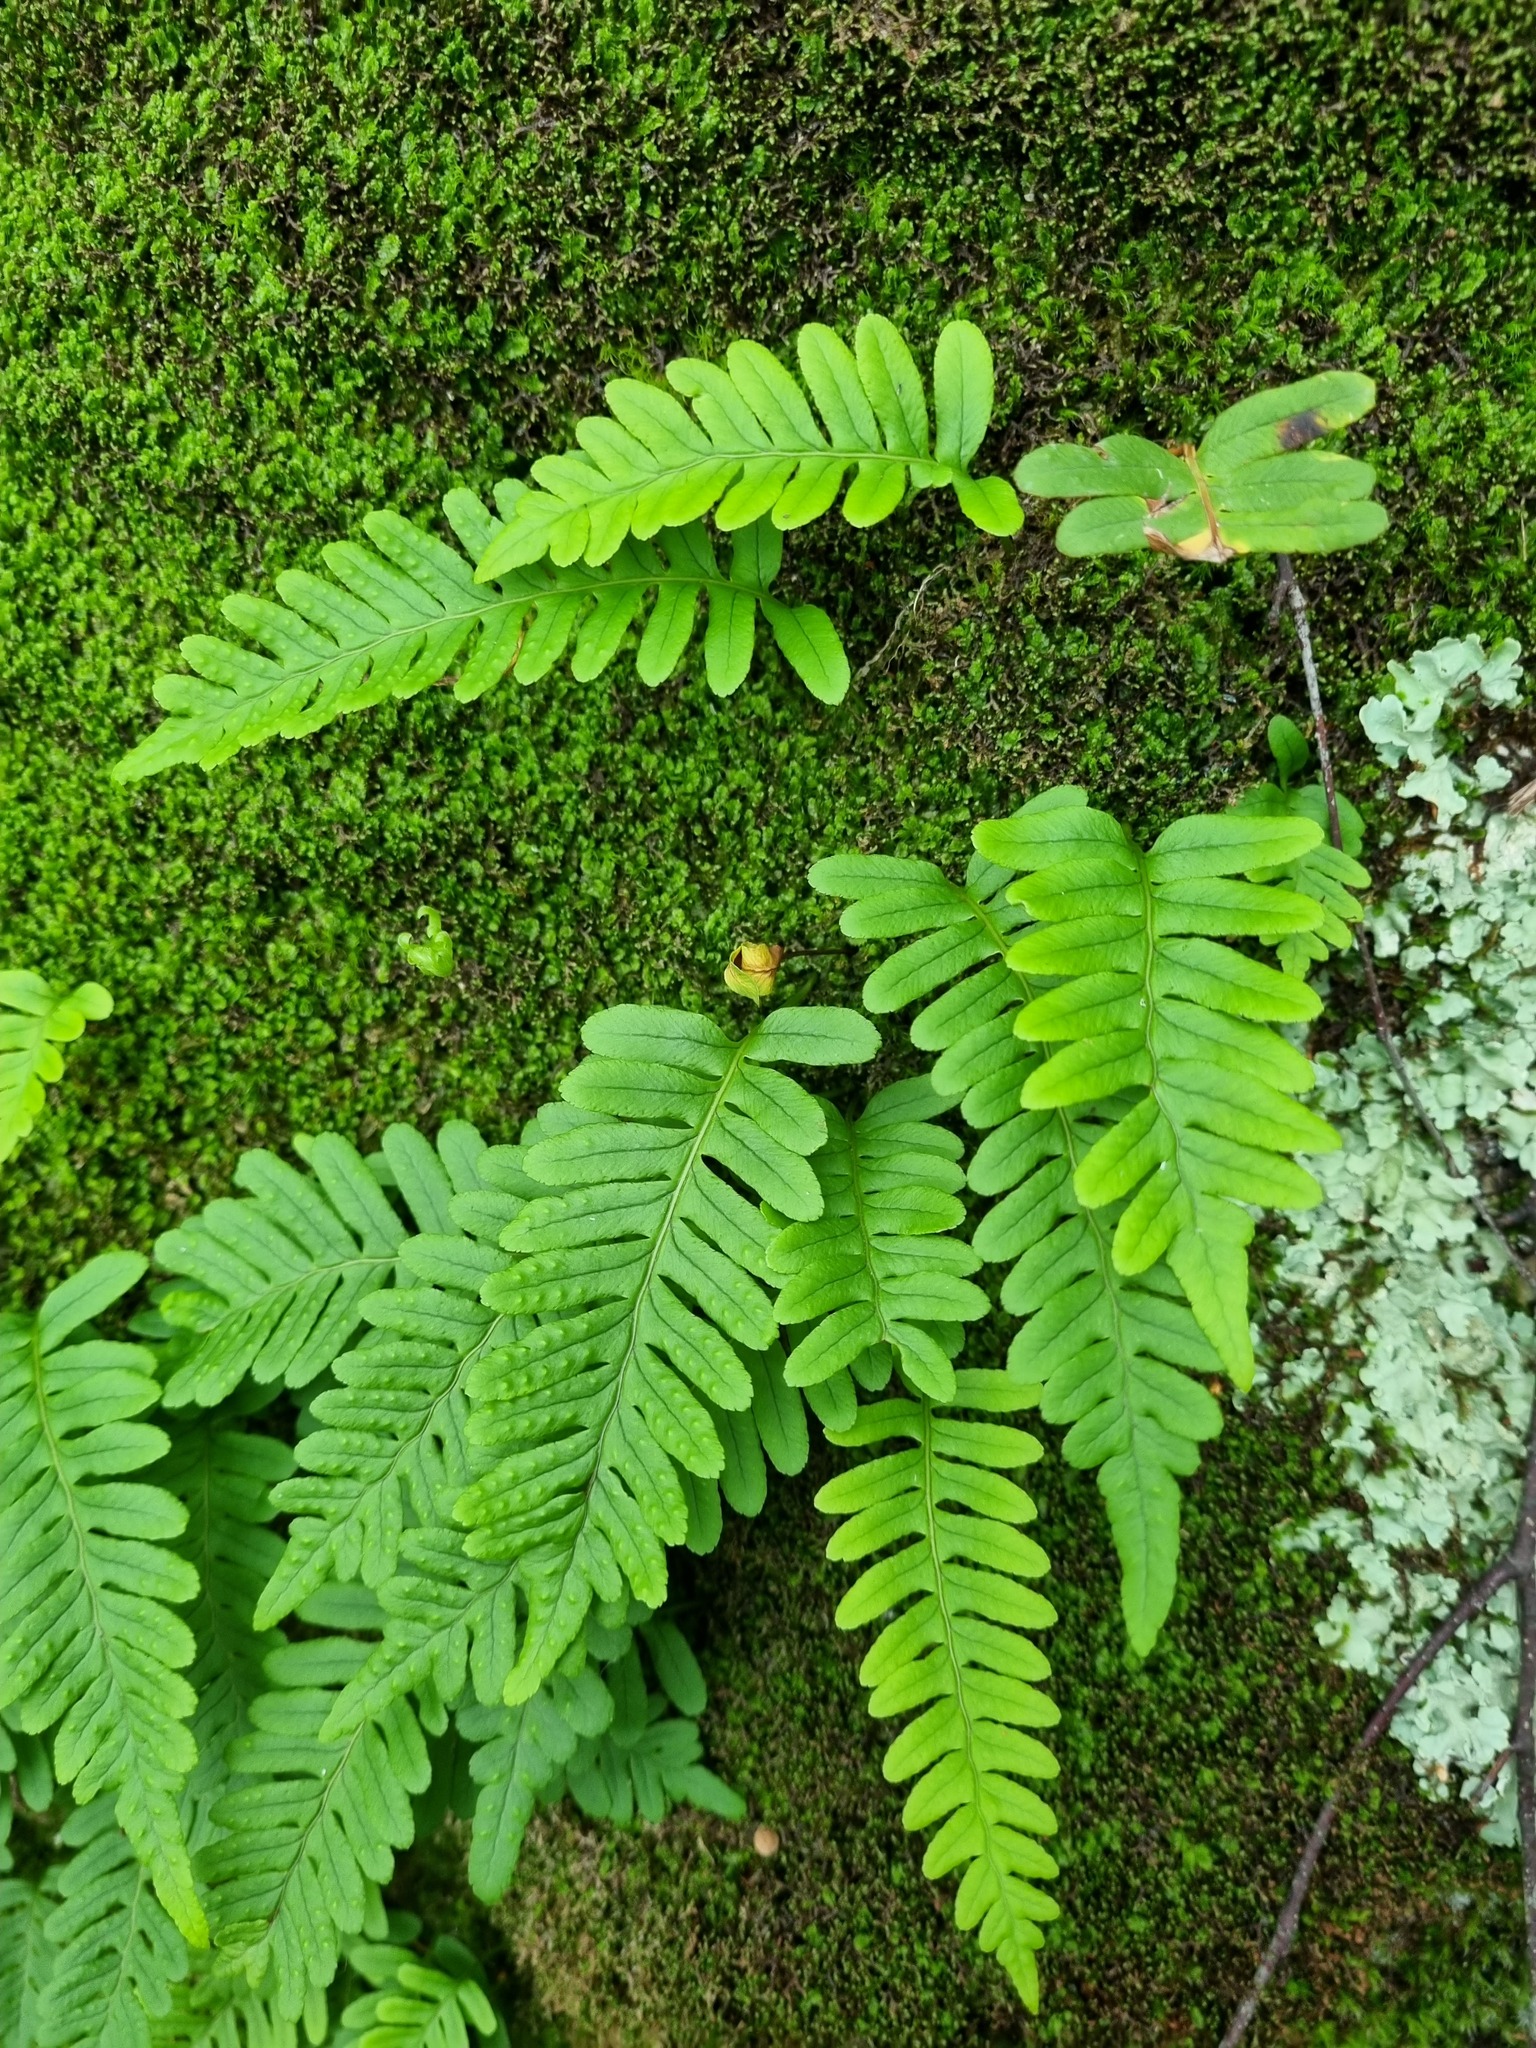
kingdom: Plantae
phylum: Tracheophyta
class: Polypodiopsida
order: Polypodiales
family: Polypodiaceae
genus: Polypodium
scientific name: Polypodium vulgare
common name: Common polypody
